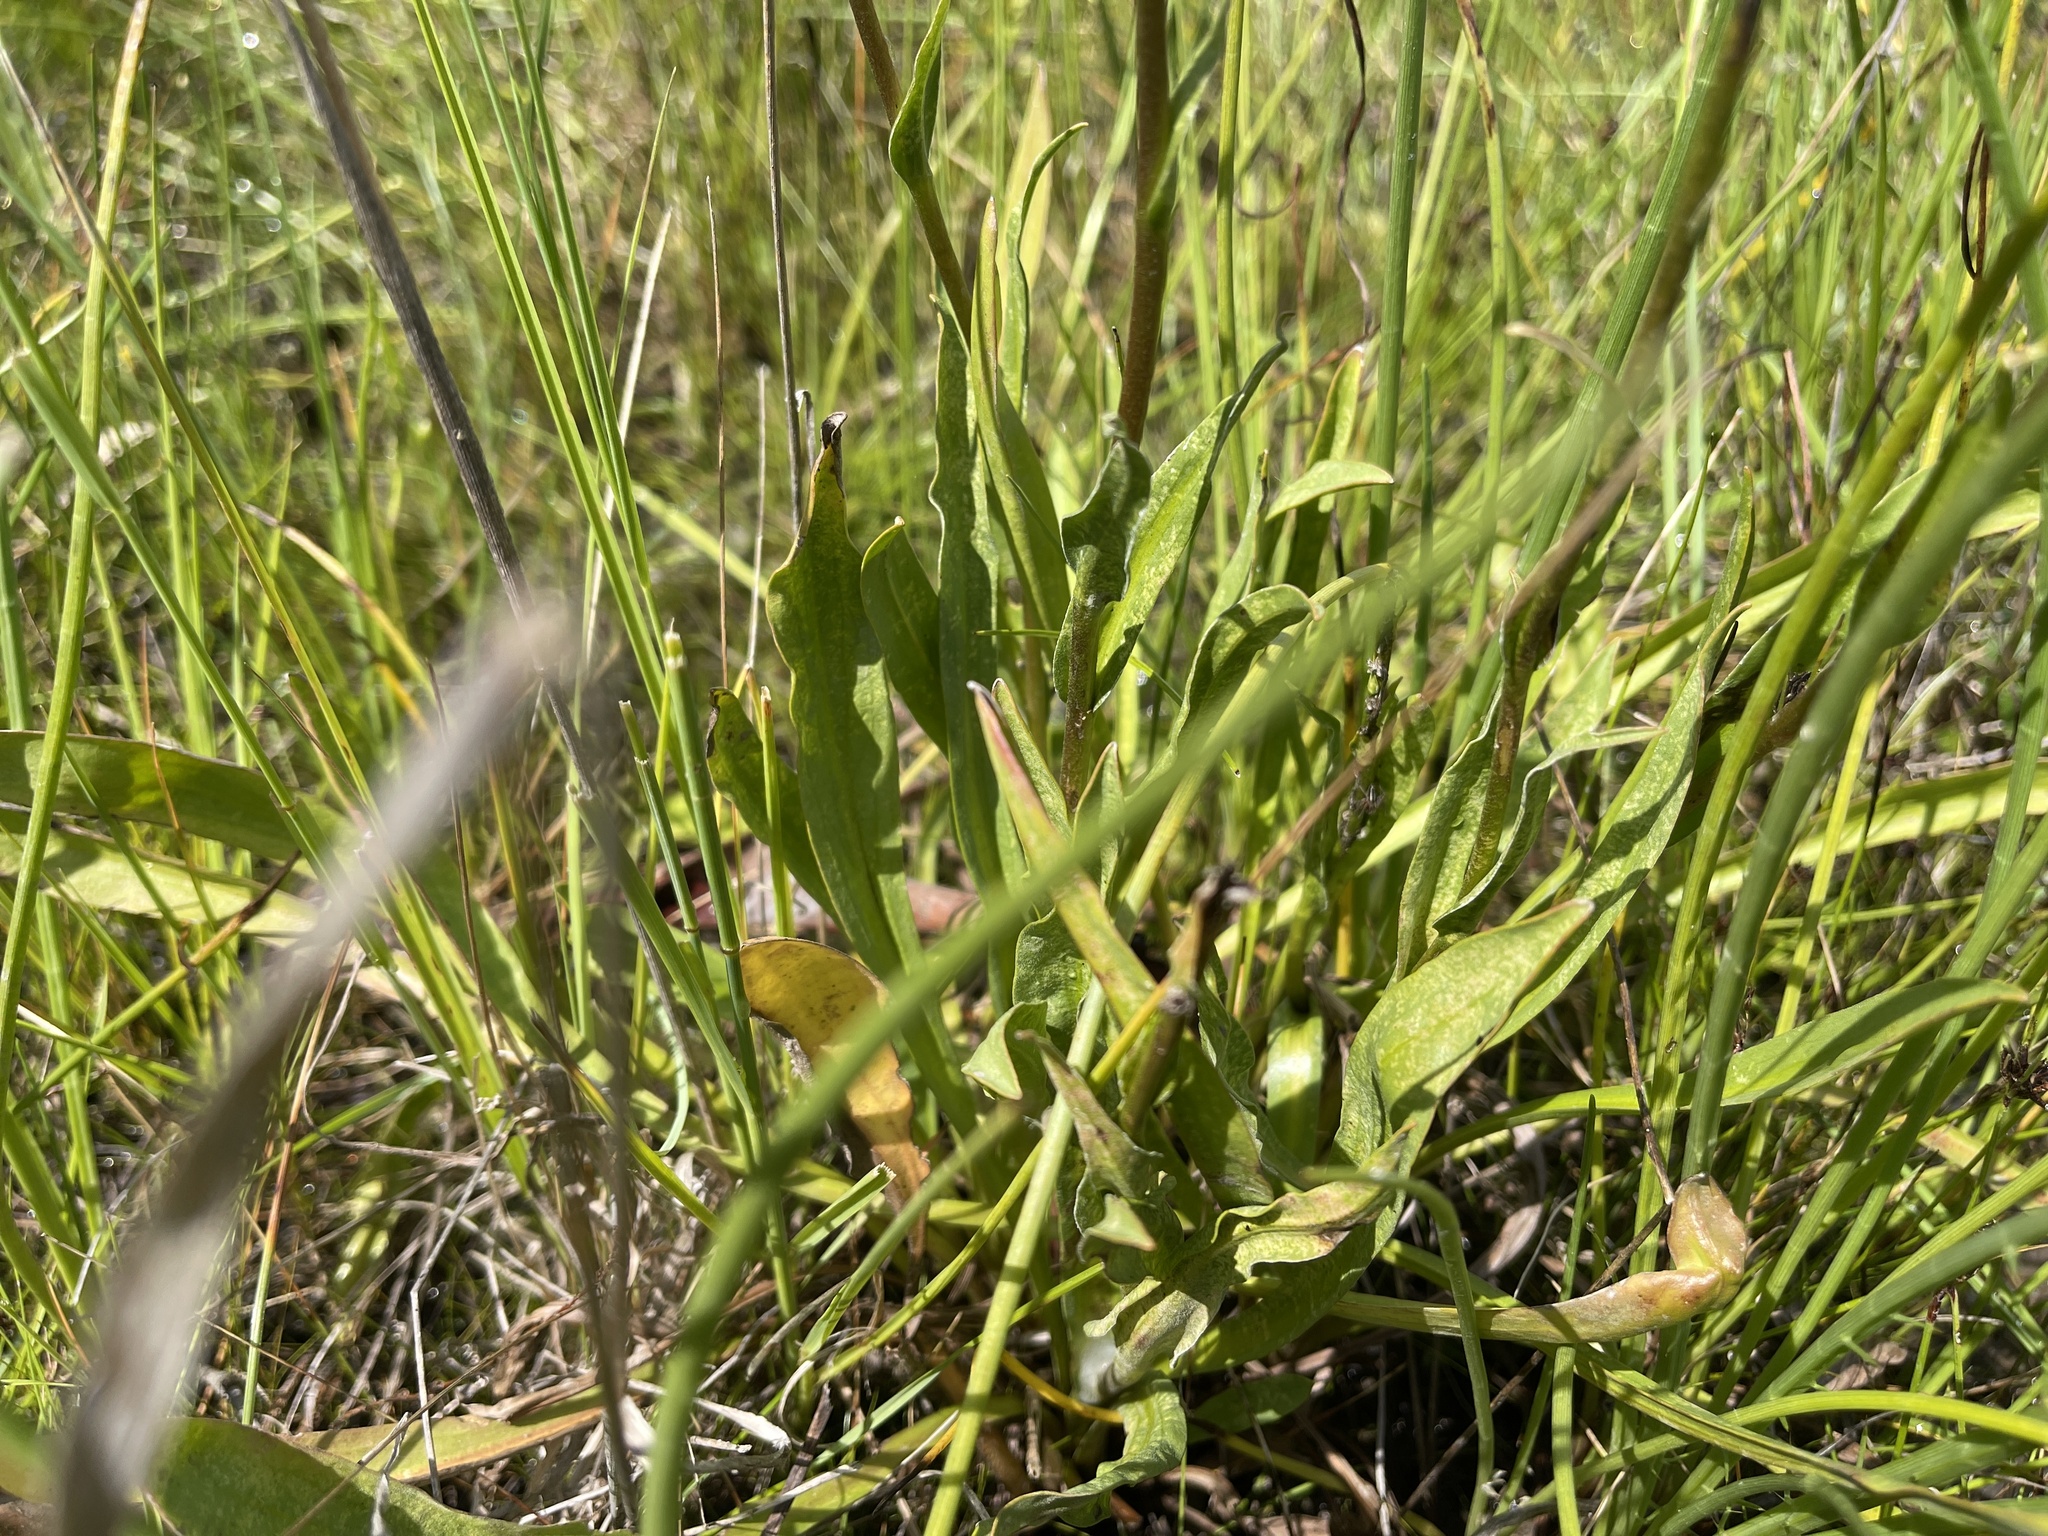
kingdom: Plantae
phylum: Tracheophyta
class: Magnoliopsida
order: Asterales
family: Asteraceae
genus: Craspedia
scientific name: Craspedia variabilis
